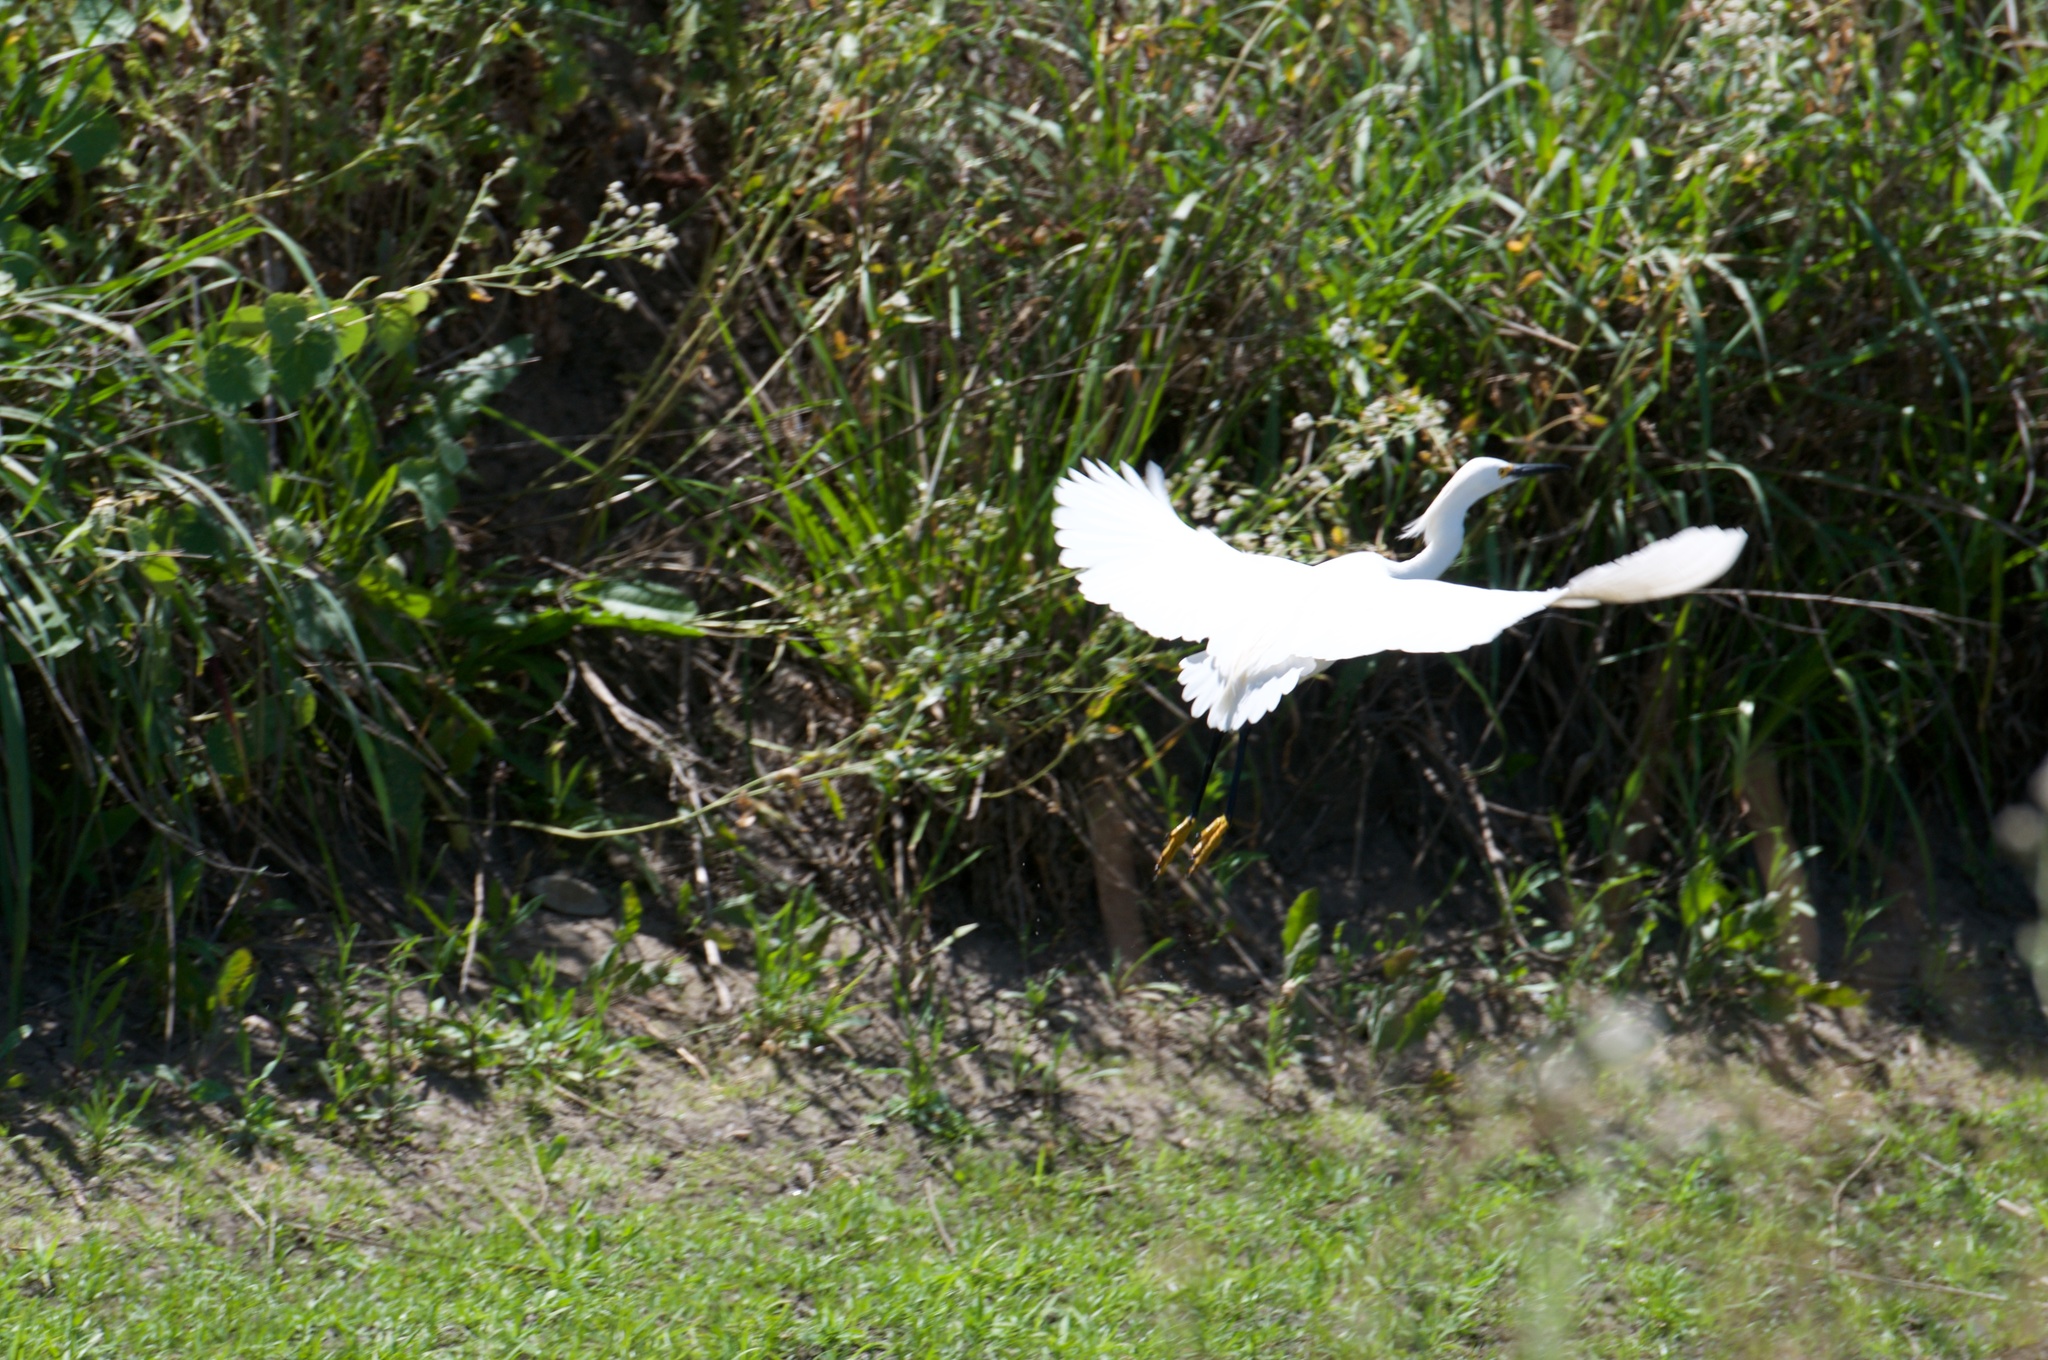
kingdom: Animalia
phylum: Chordata
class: Aves
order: Pelecaniformes
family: Ardeidae
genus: Egretta
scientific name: Egretta thula
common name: Snowy egret
